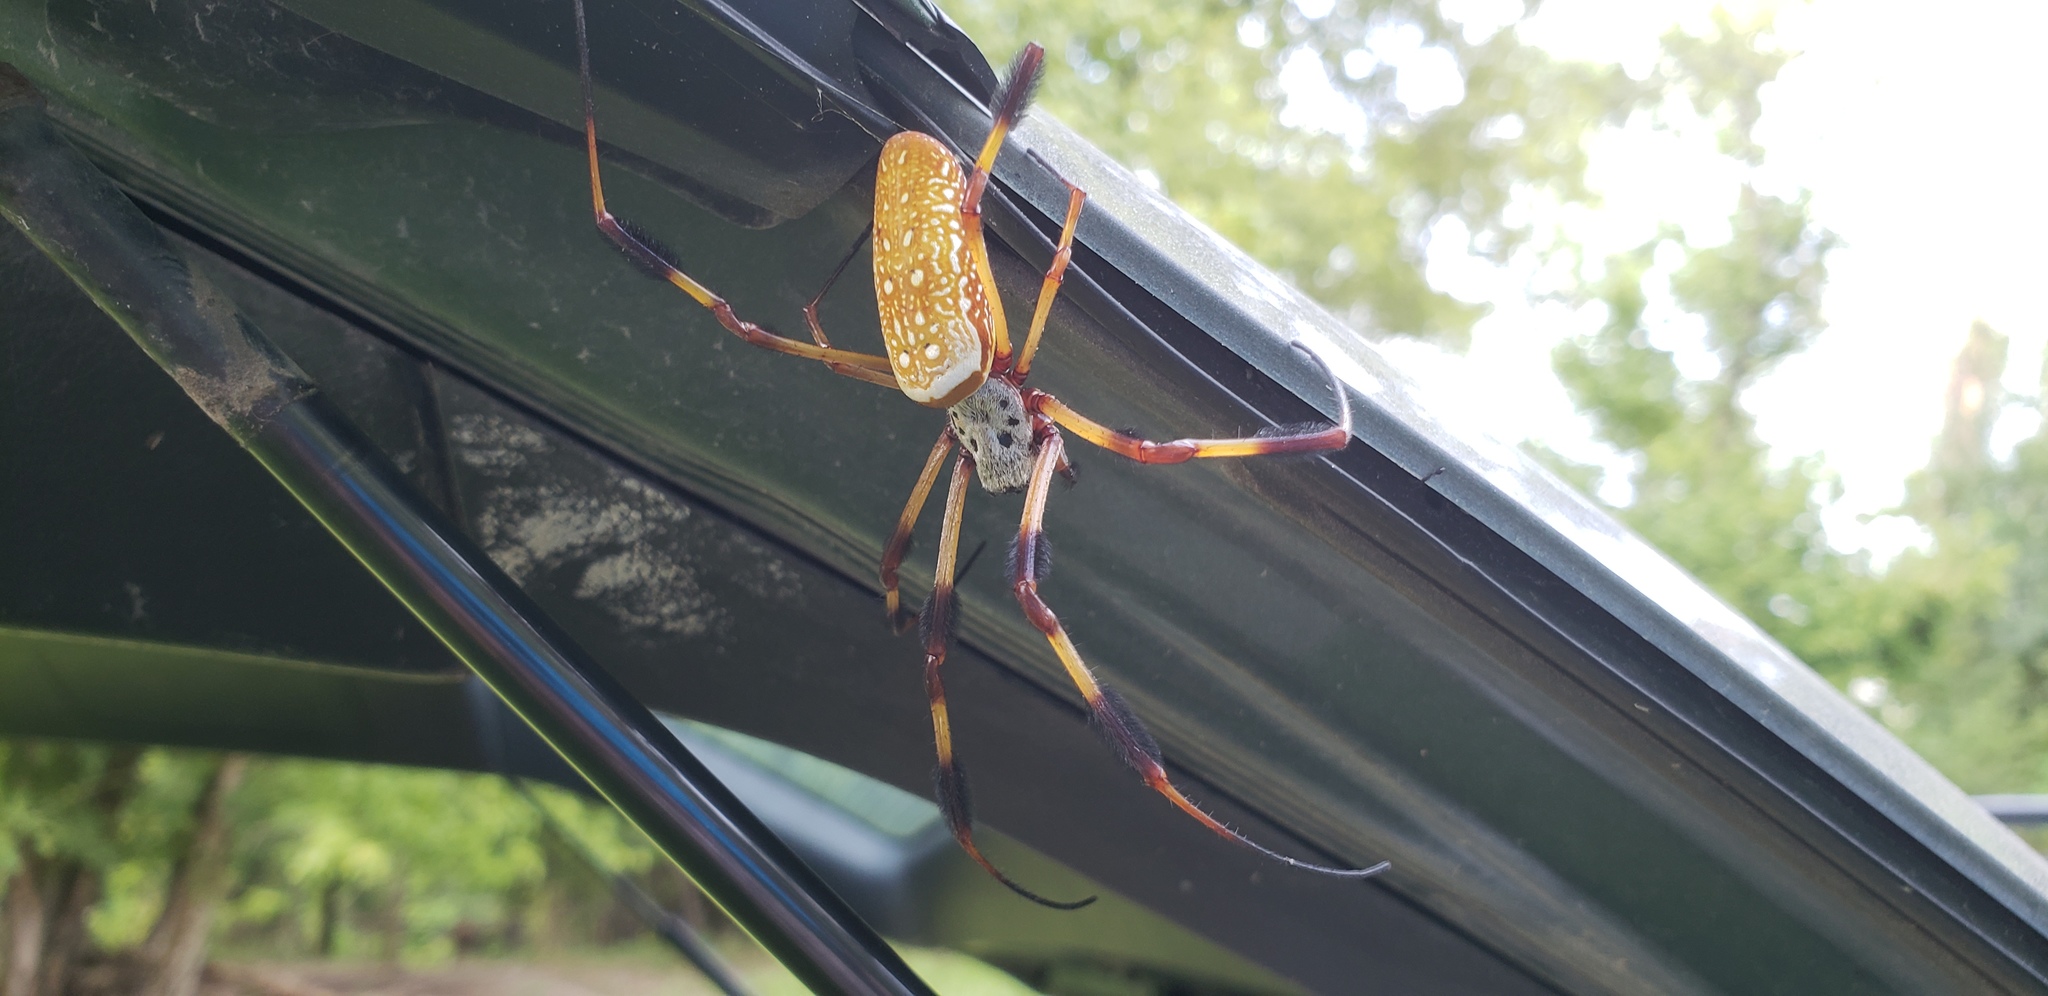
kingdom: Animalia
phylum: Arthropoda
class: Arachnida
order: Araneae
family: Araneidae
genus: Trichonephila
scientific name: Trichonephila clavipes
